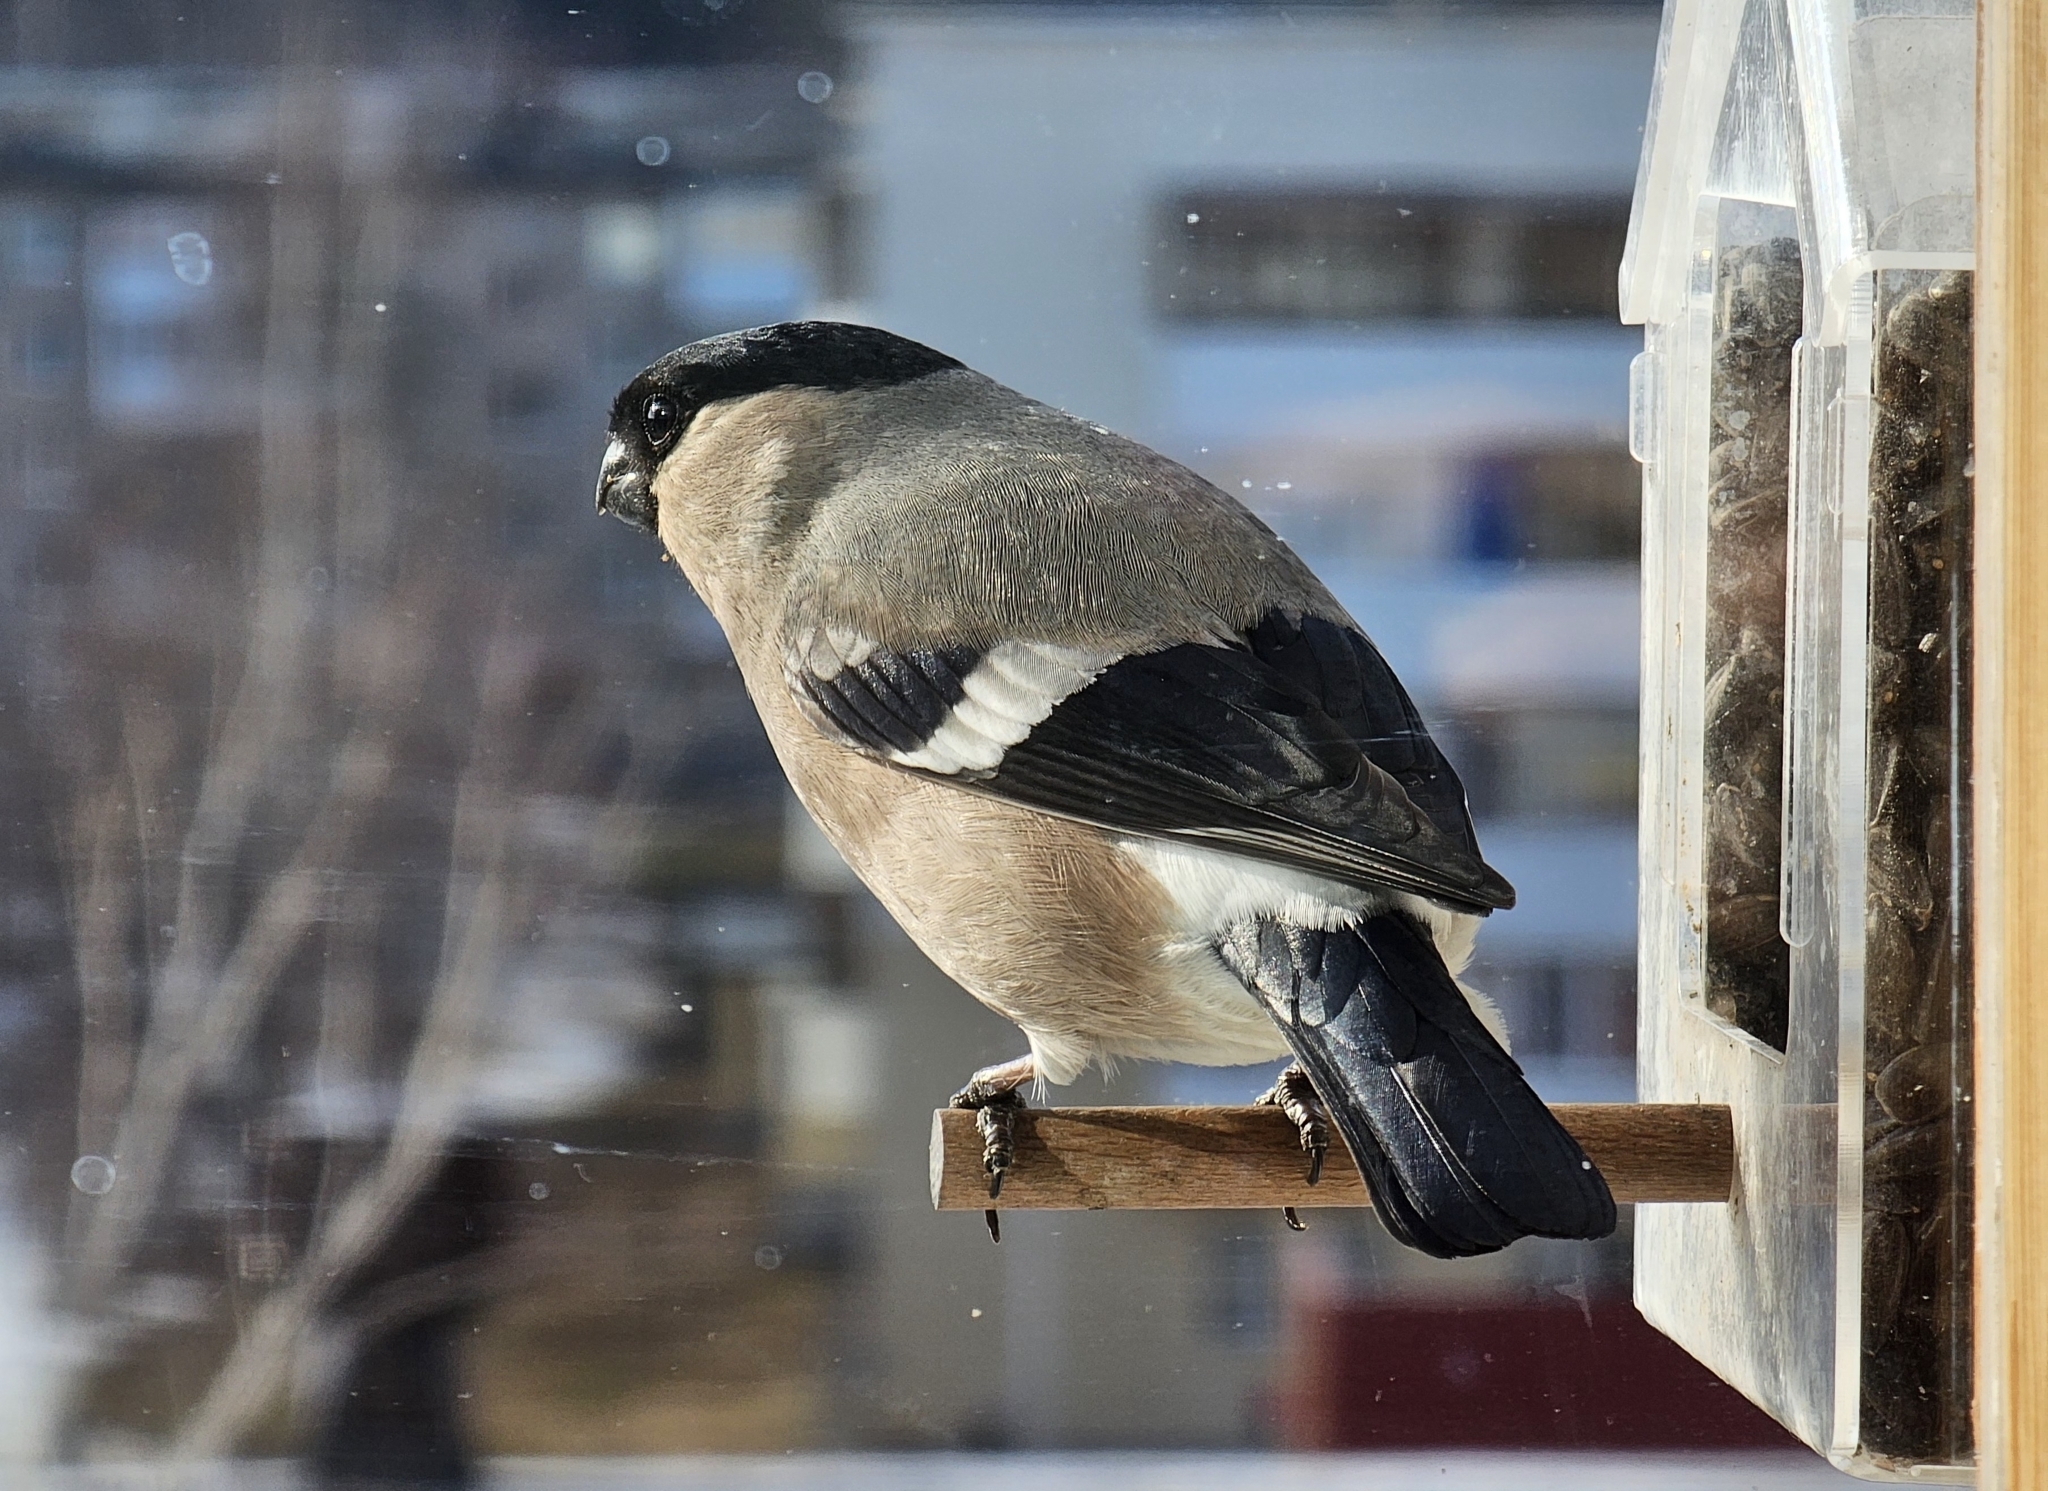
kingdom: Animalia
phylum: Chordata
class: Aves
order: Passeriformes
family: Fringillidae
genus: Pyrrhula
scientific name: Pyrrhula pyrrhula
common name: Eurasian bullfinch
